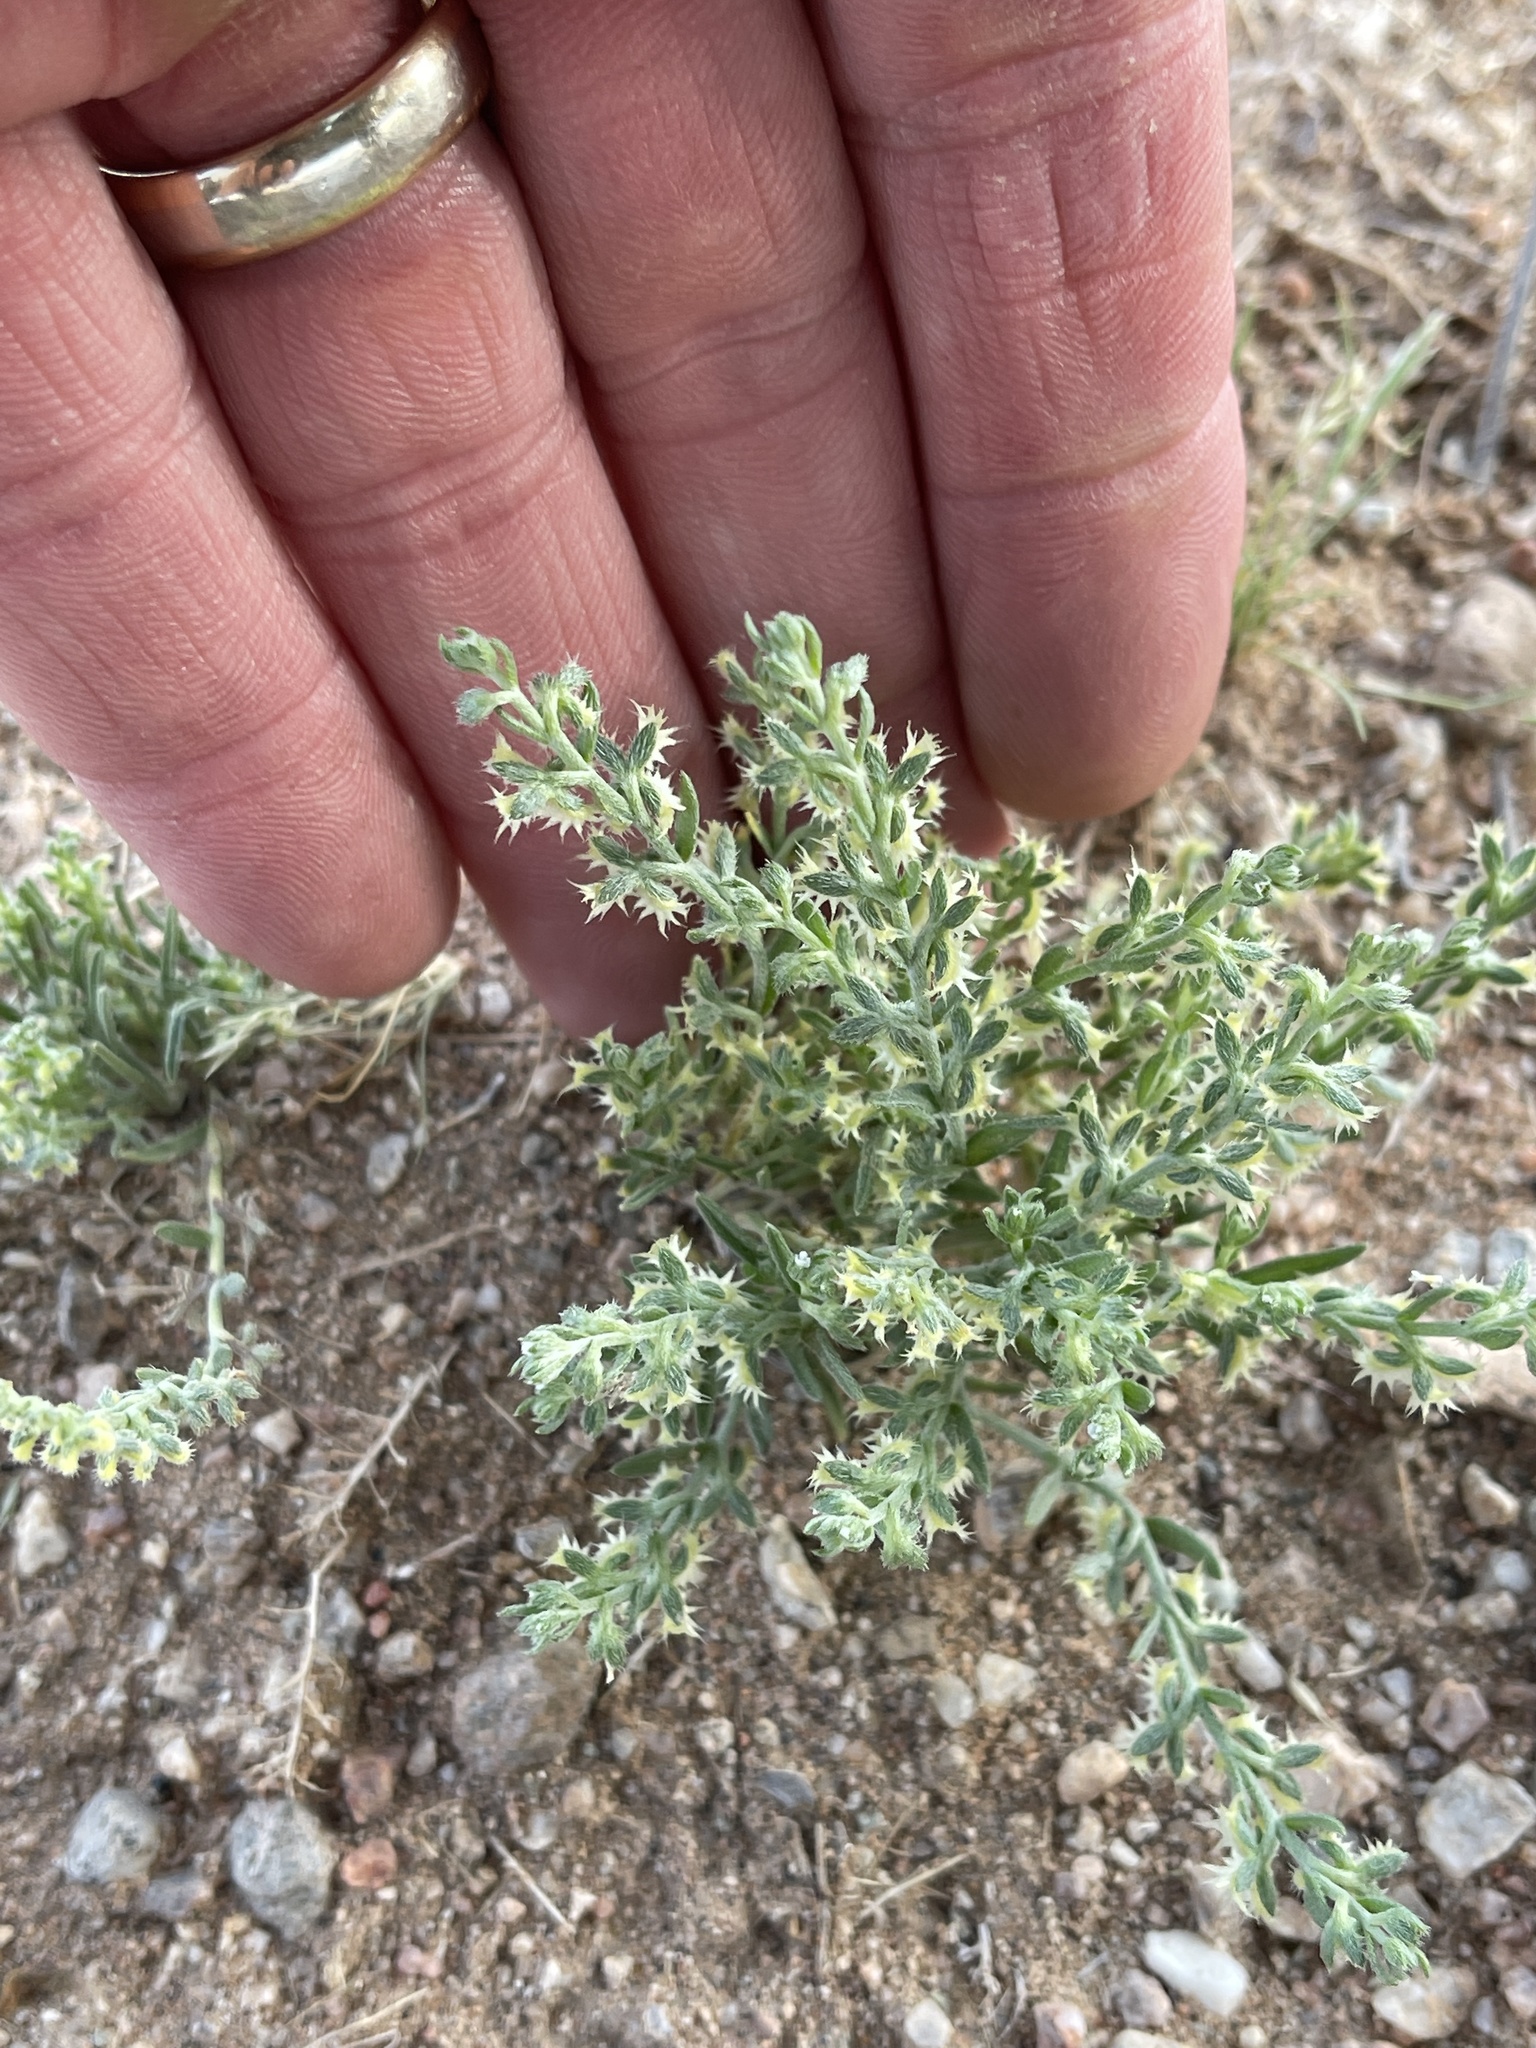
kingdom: Plantae
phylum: Tracheophyta
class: Magnoliopsida
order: Boraginales
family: Boraginaceae
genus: Pectocarya
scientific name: Pectocarya platycarpa
